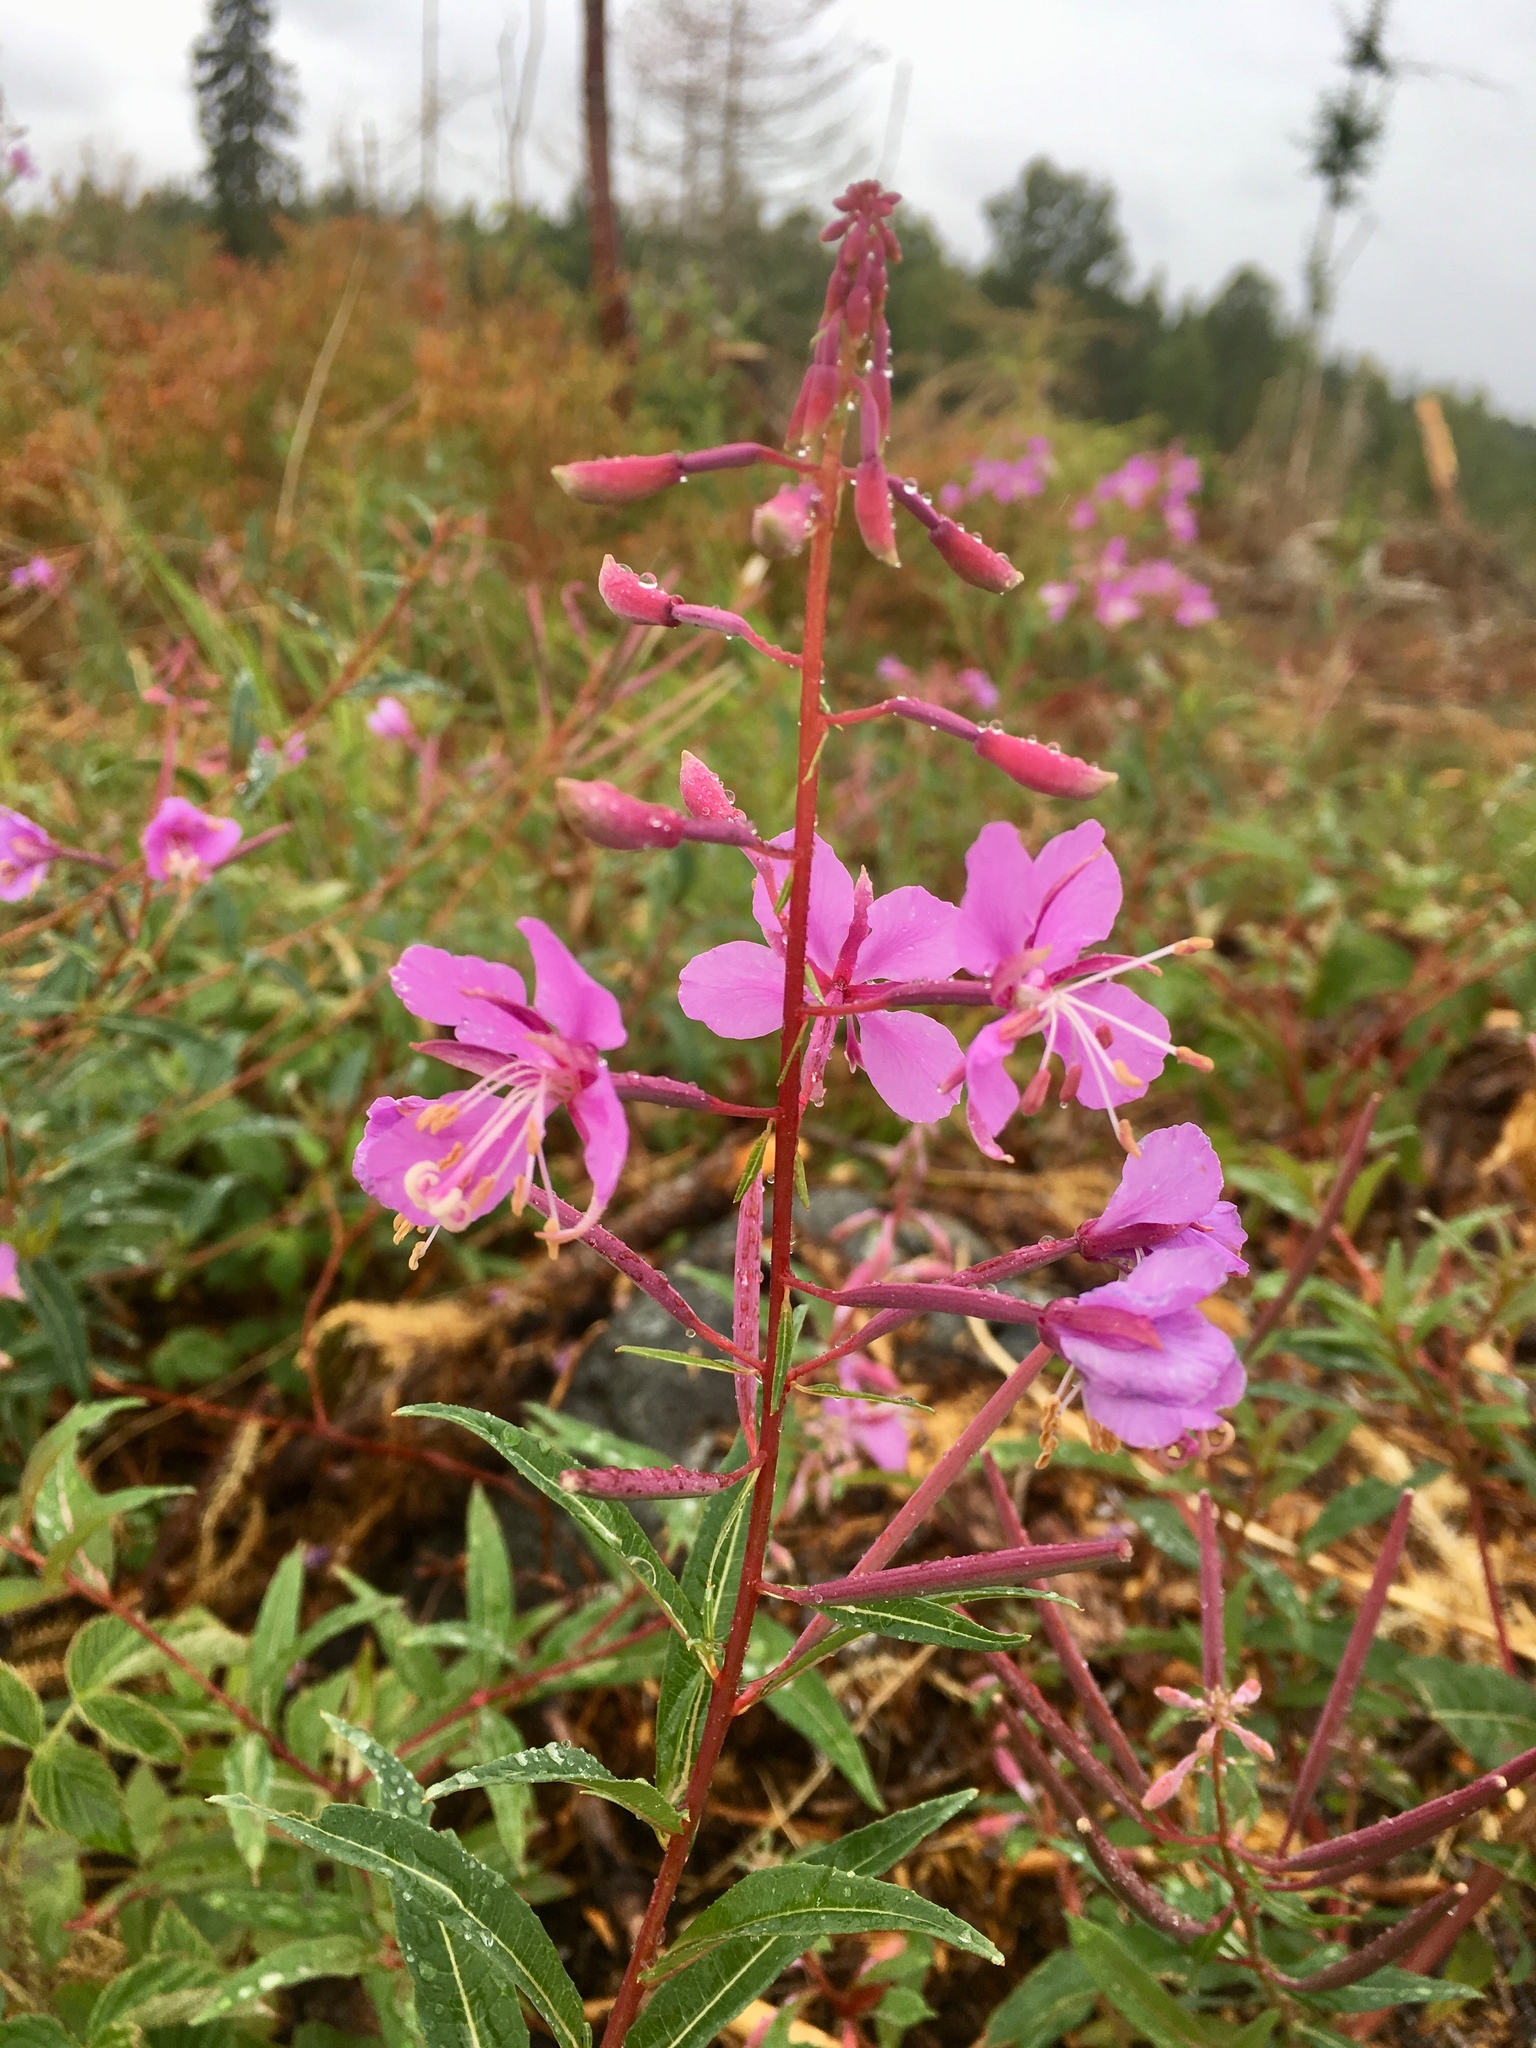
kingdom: Plantae
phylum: Tracheophyta
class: Magnoliopsida
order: Myrtales
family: Onagraceae
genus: Chamaenerion
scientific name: Chamaenerion angustifolium
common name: Fireweed
